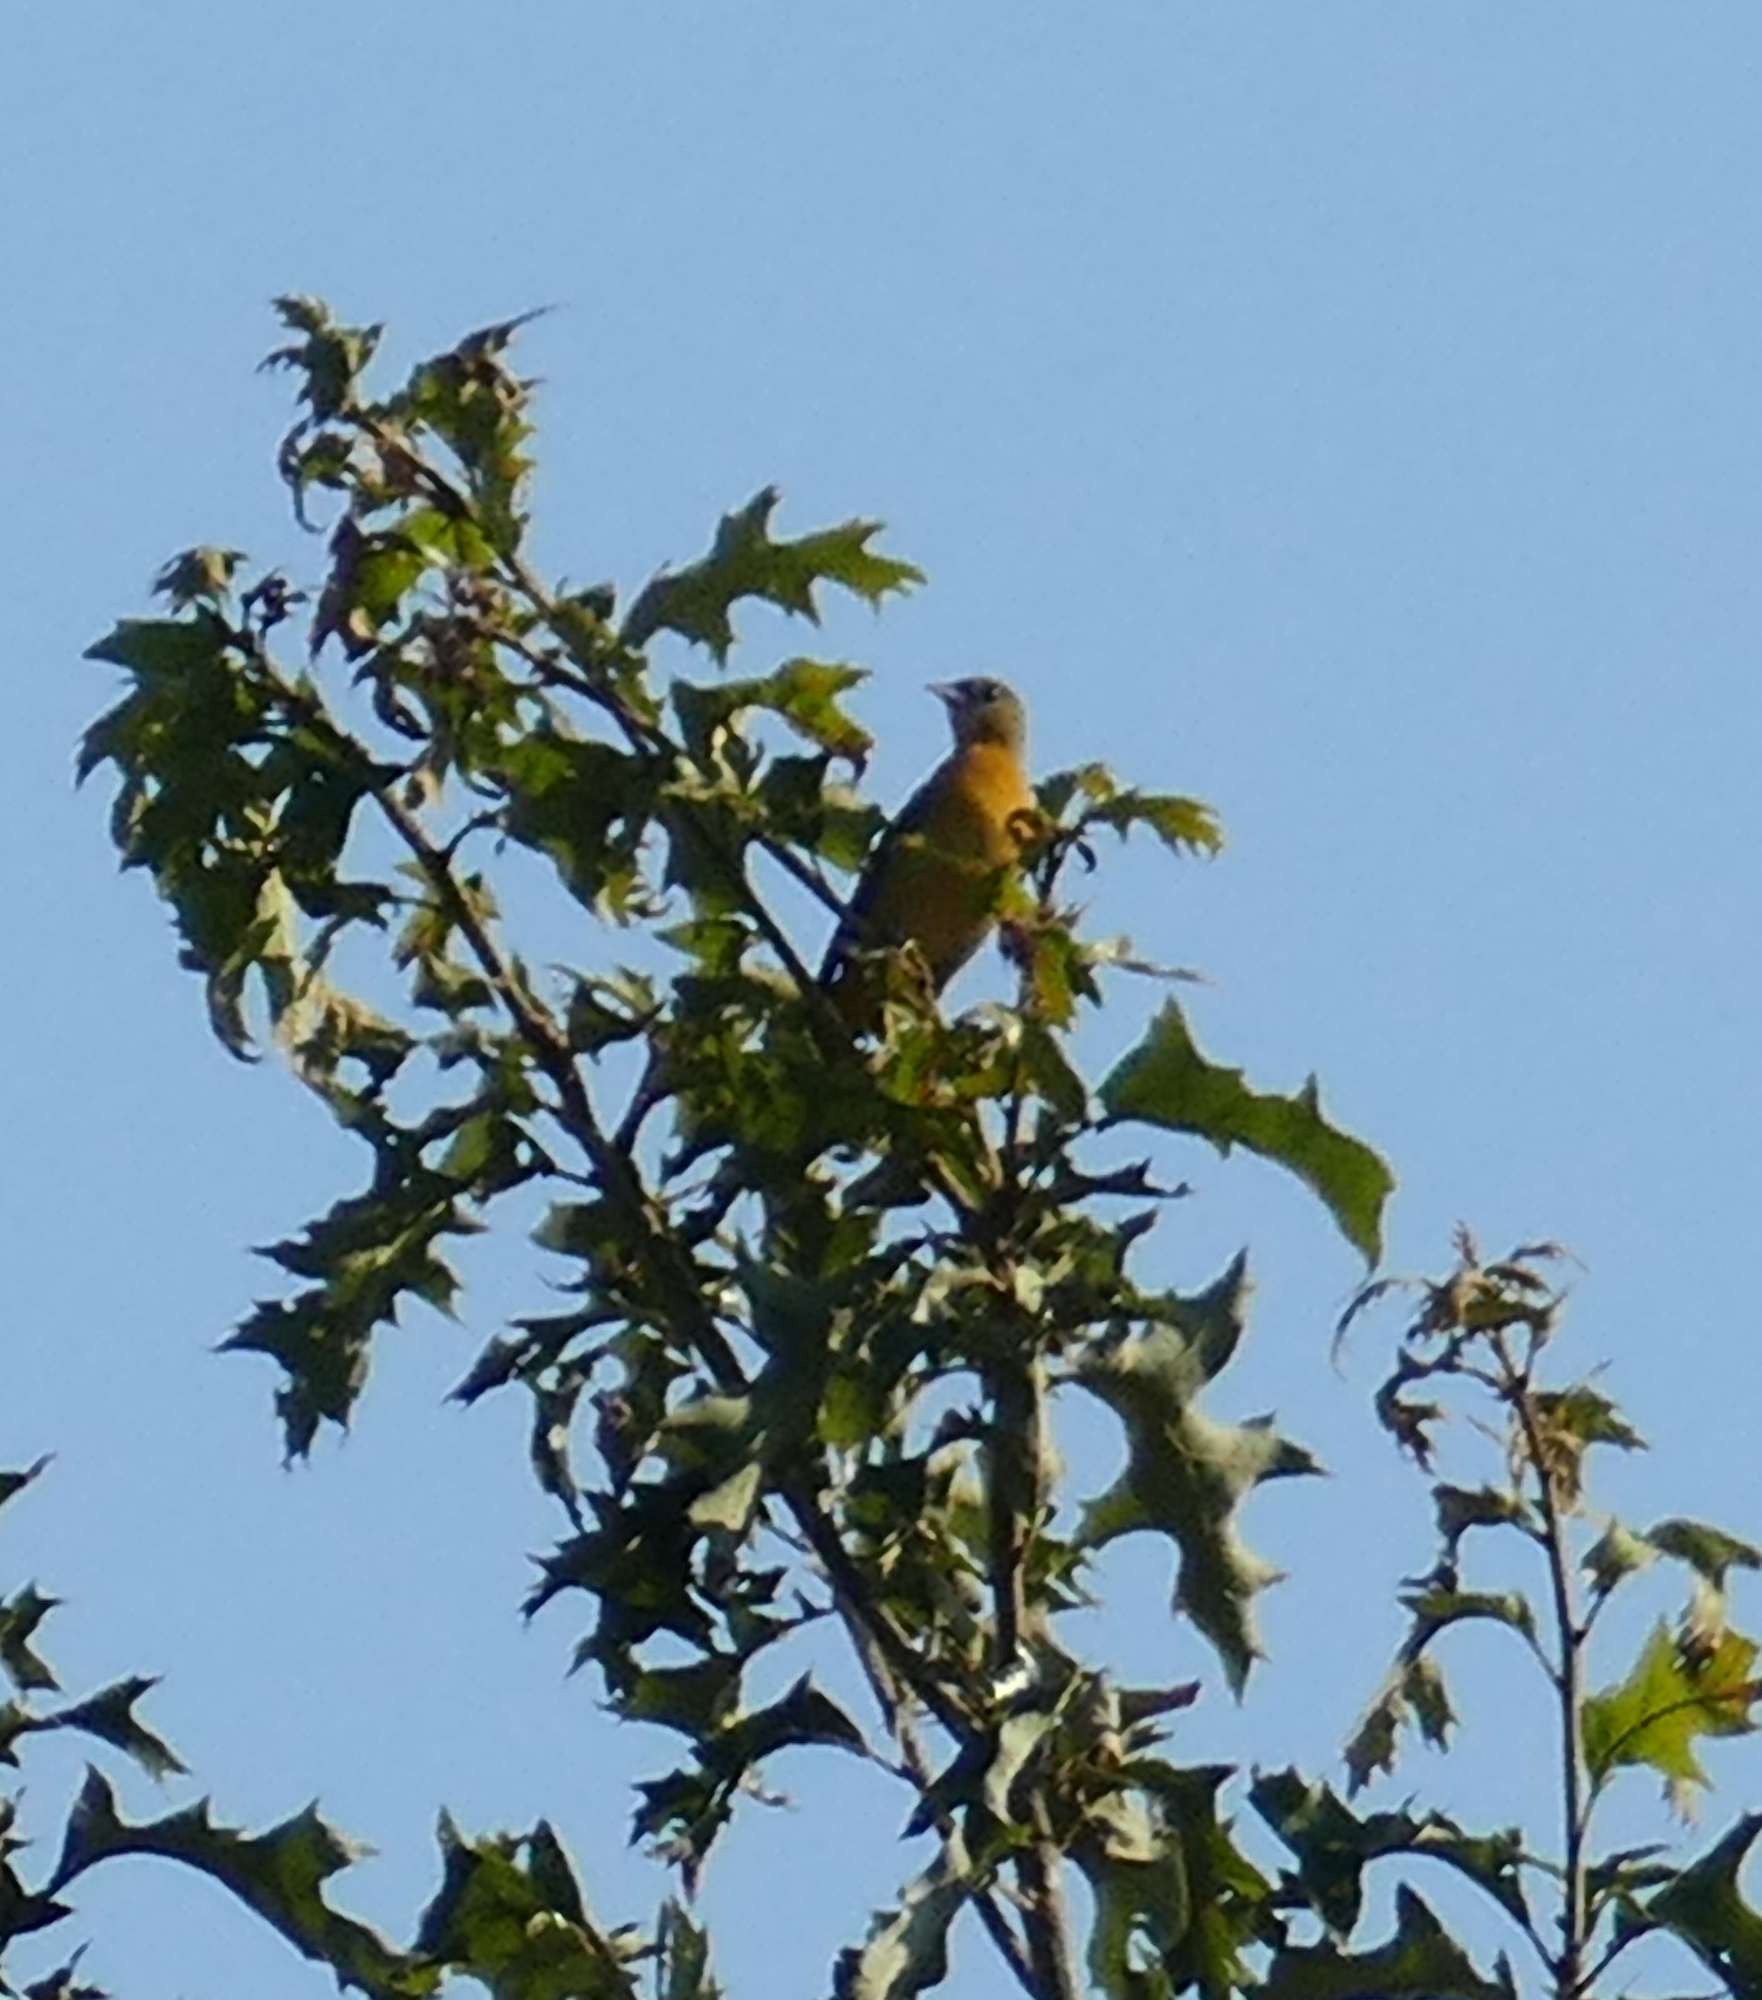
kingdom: Animalia
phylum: Chordata
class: Aves
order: Passeriformes
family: Icteridae
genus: Icterus
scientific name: Icterus galbula
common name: Baltimore oriole
